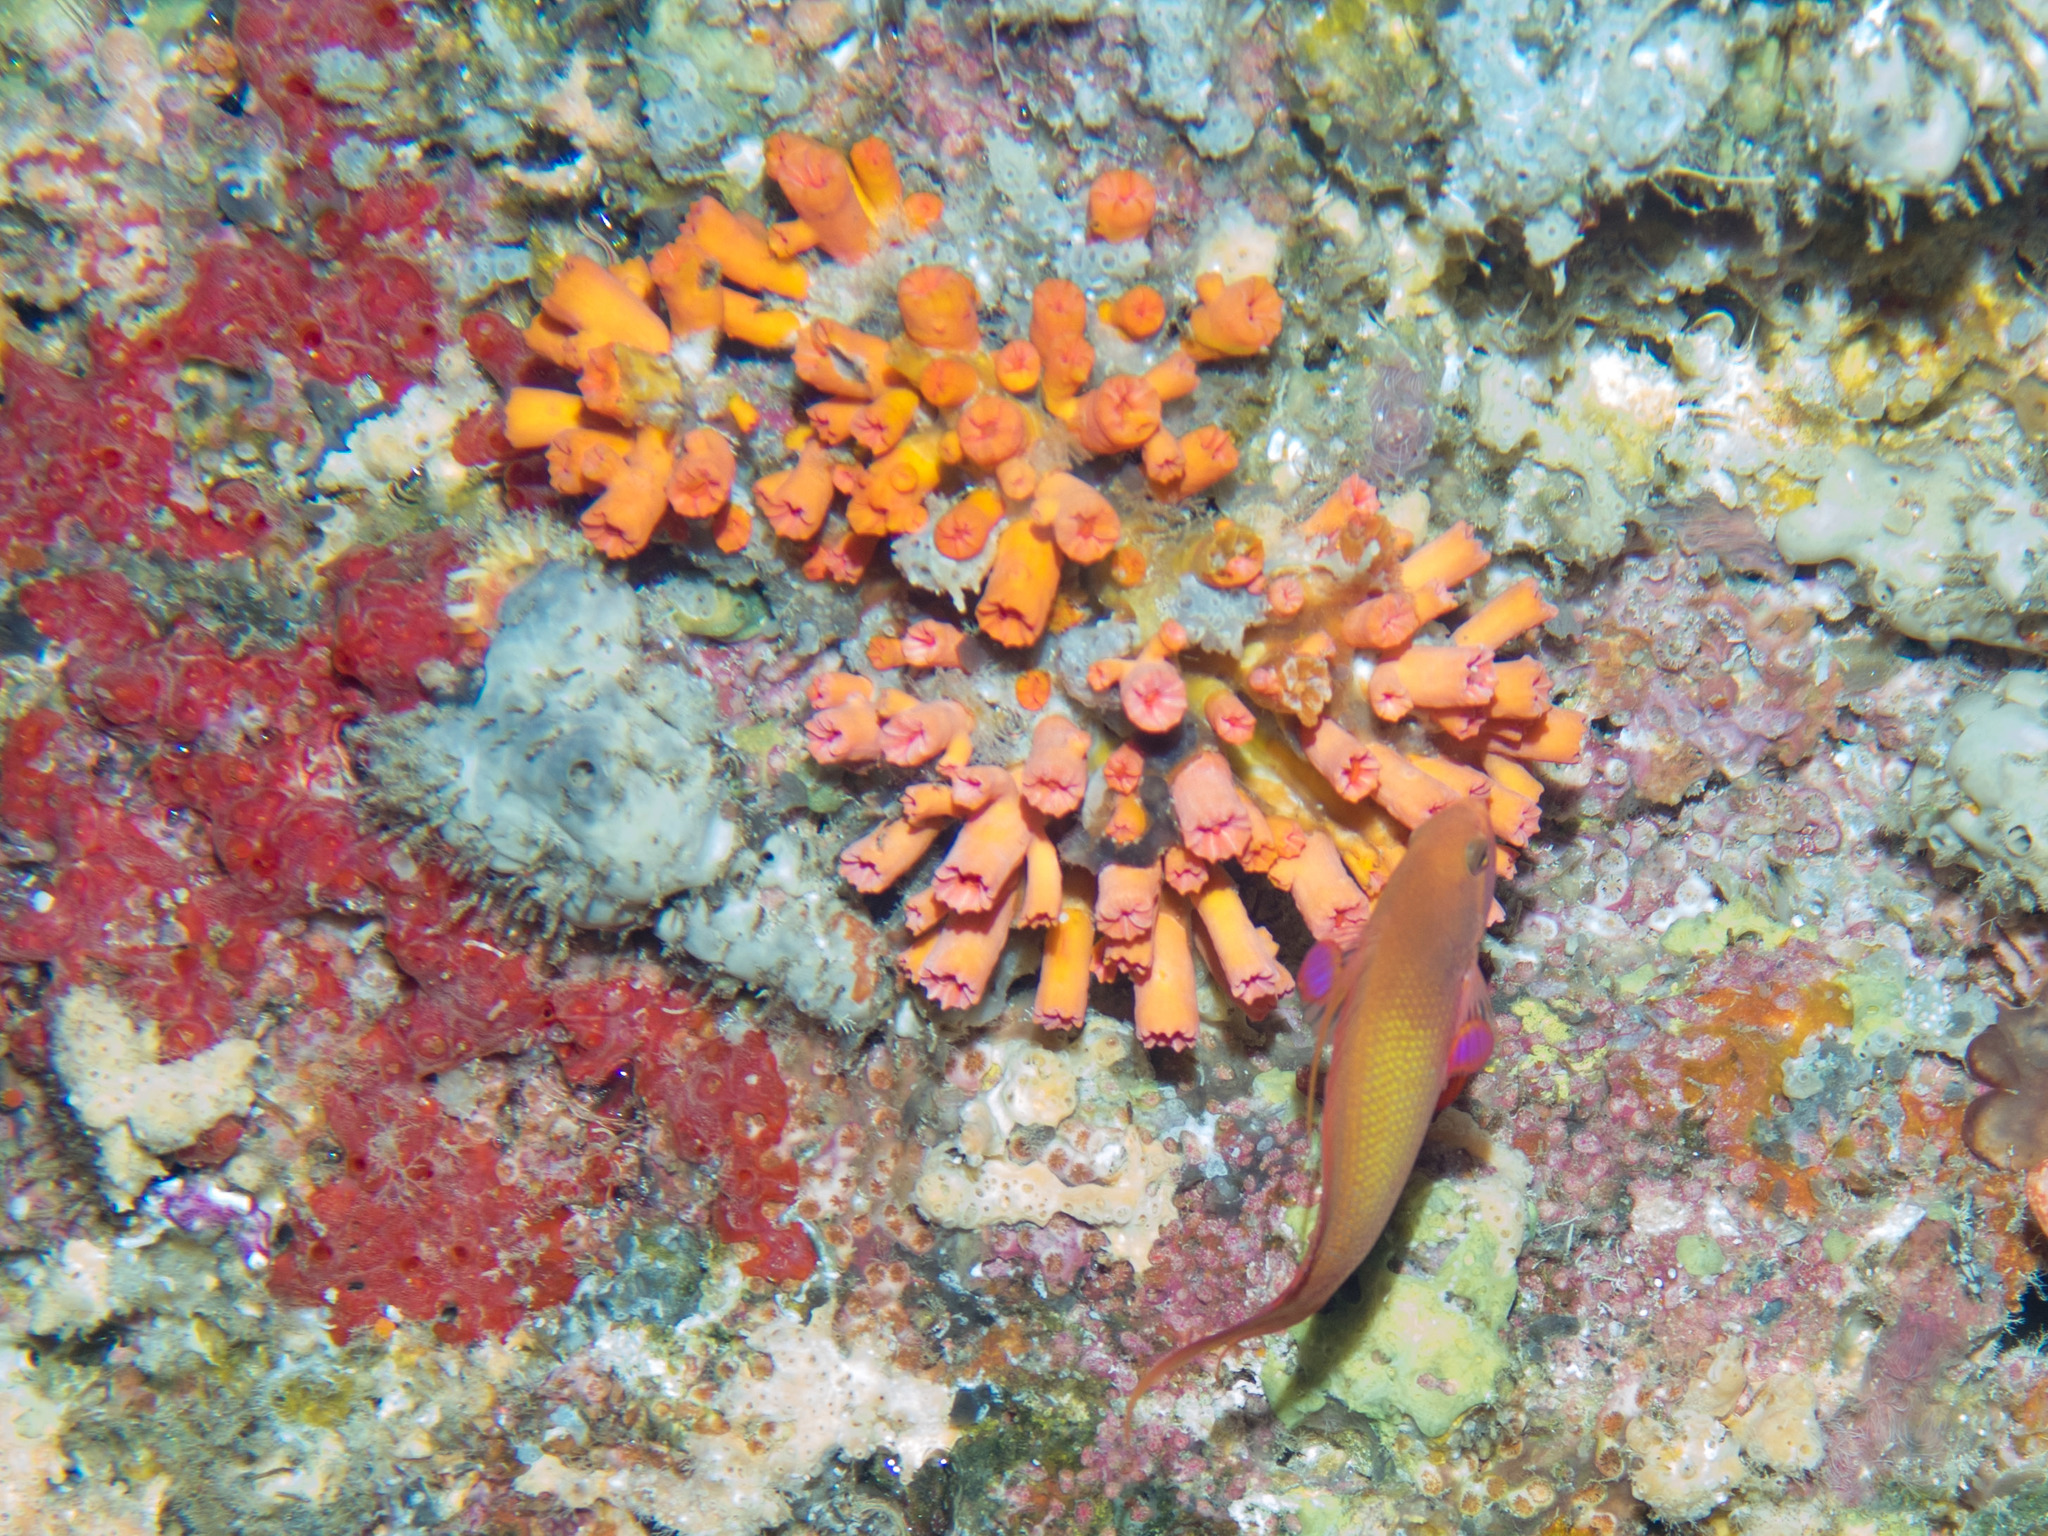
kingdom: Animalia
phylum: Cnidaria
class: Anthozoa
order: Scleractinia
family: Dendrophylliidae
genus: Cladopsammia
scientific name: Cladopsammia gracilis
